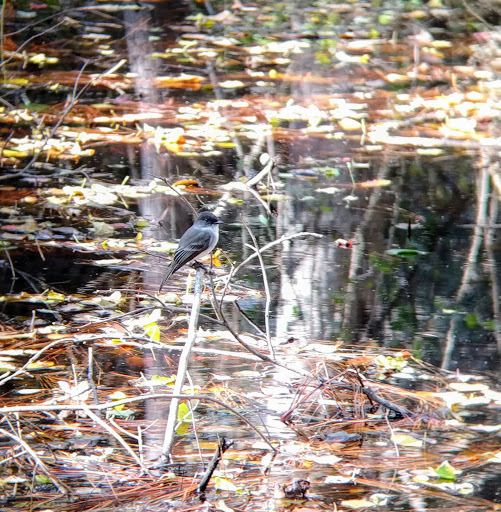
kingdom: Animalia
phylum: Chordata
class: Aves
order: Passeriformes
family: Tyrannidae
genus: Sayornis
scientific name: Sayornis phoebe
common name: Eastern phoebe
